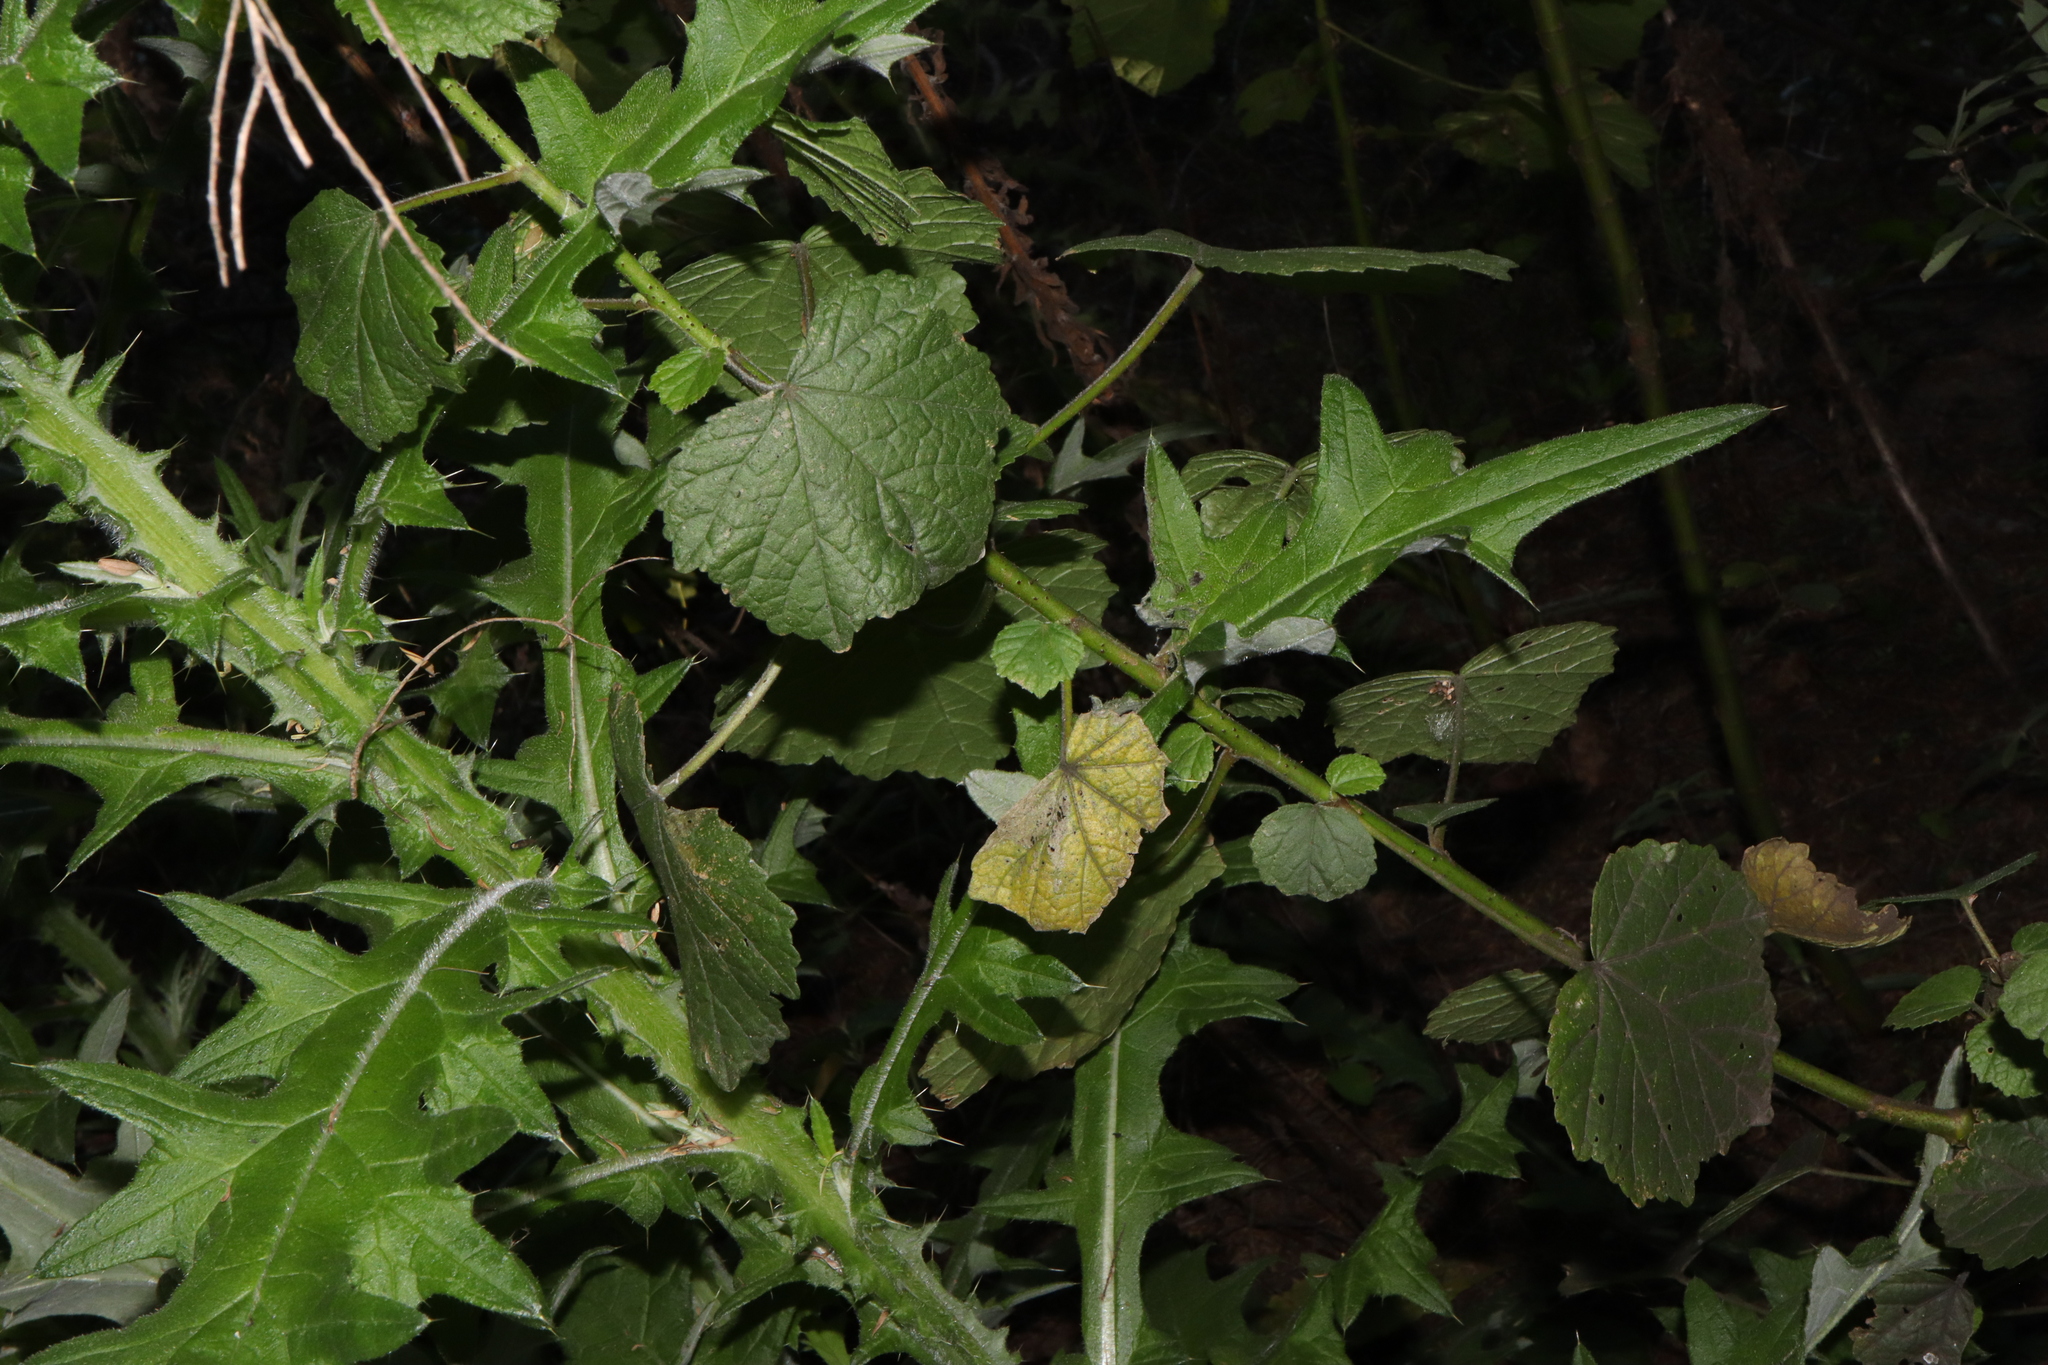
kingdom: Plantae
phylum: Tracheophyta
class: Magnoliopsida
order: Malvales
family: Malvaceae
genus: Hibiscus
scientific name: Hibiscus diversifolius
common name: Cape hibiscus
